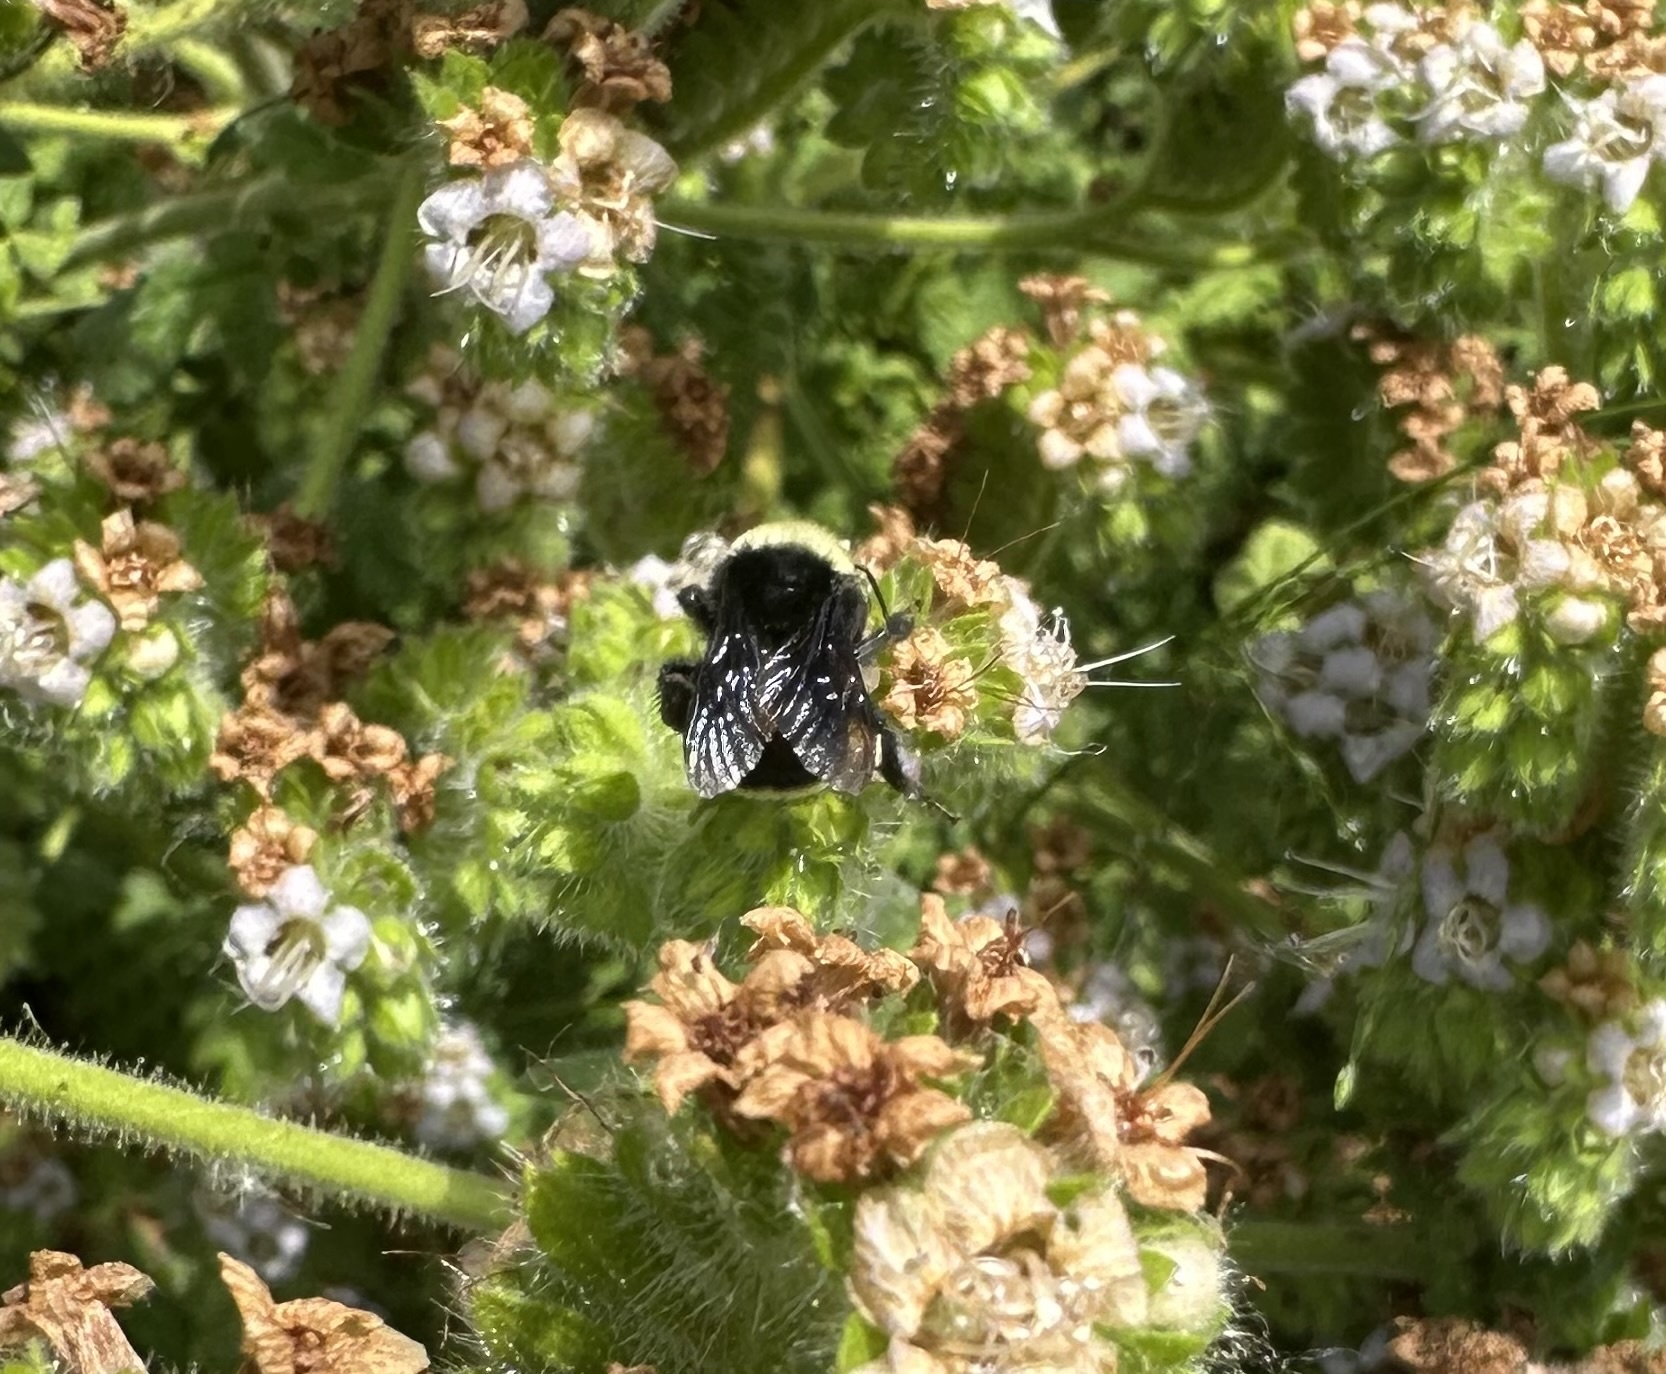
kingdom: Animalia
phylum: Arthropoda
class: Insecta
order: Hymenoptera
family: Apidae
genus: Bombus
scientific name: Bombus vosnesenskii
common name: Vosnesensky bumble bee
